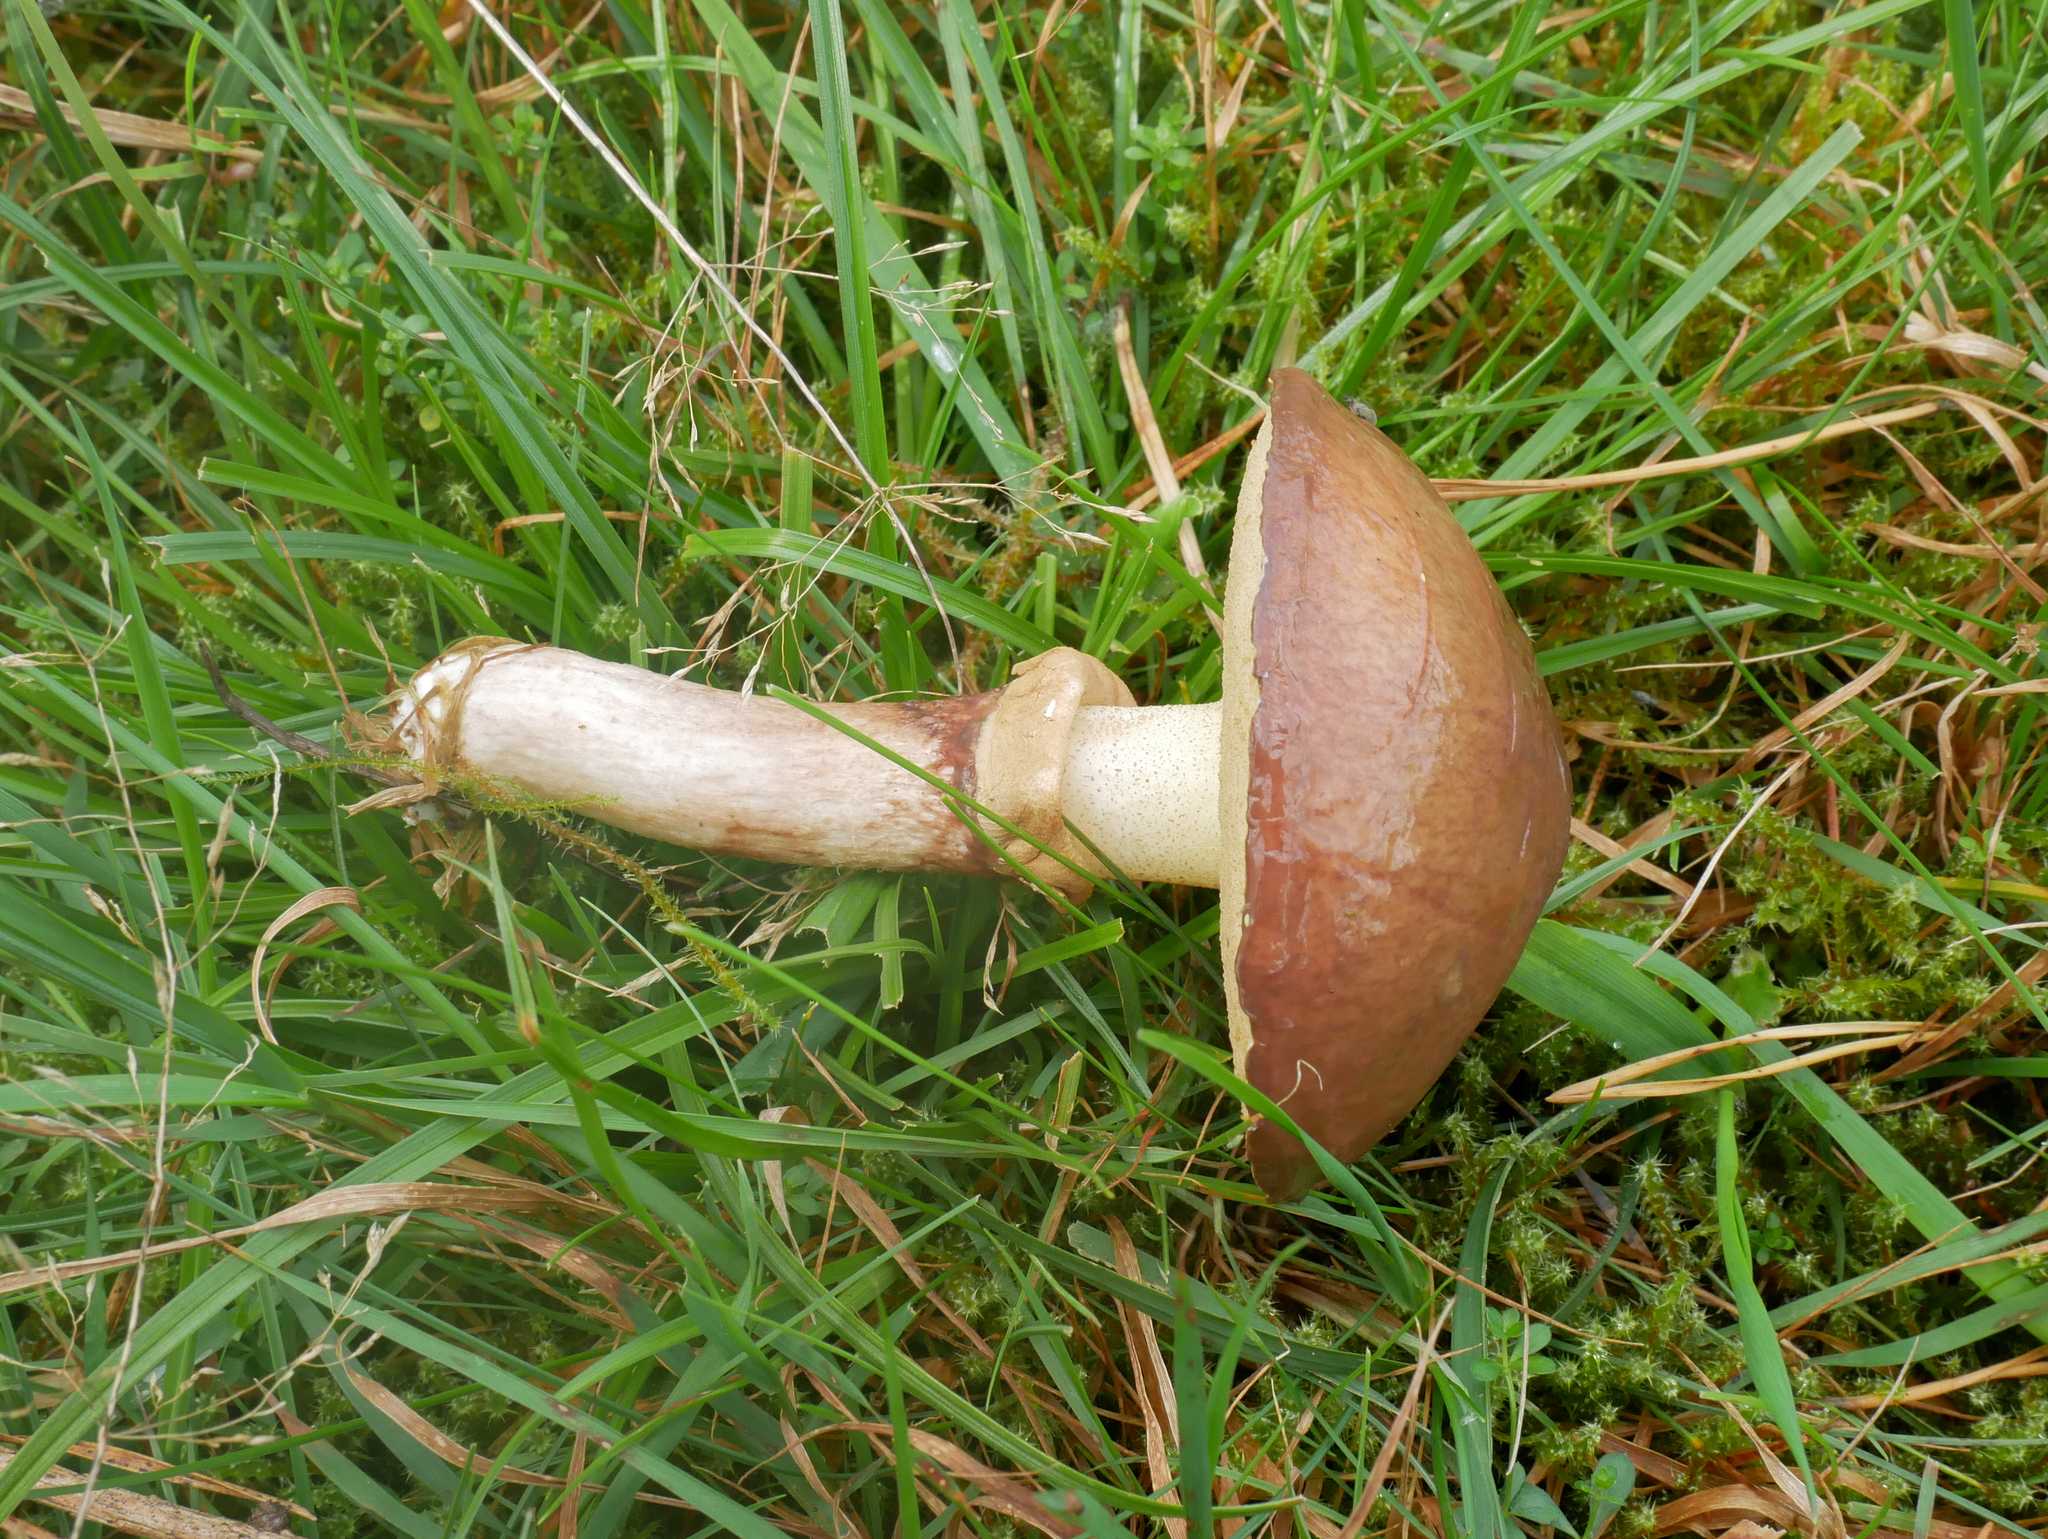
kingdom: Fungi
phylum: Basidiomycota
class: Agaricomycetes
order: Boletales
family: Suillaceae
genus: Suillus
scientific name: Suillus luteus
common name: Slippery jack
